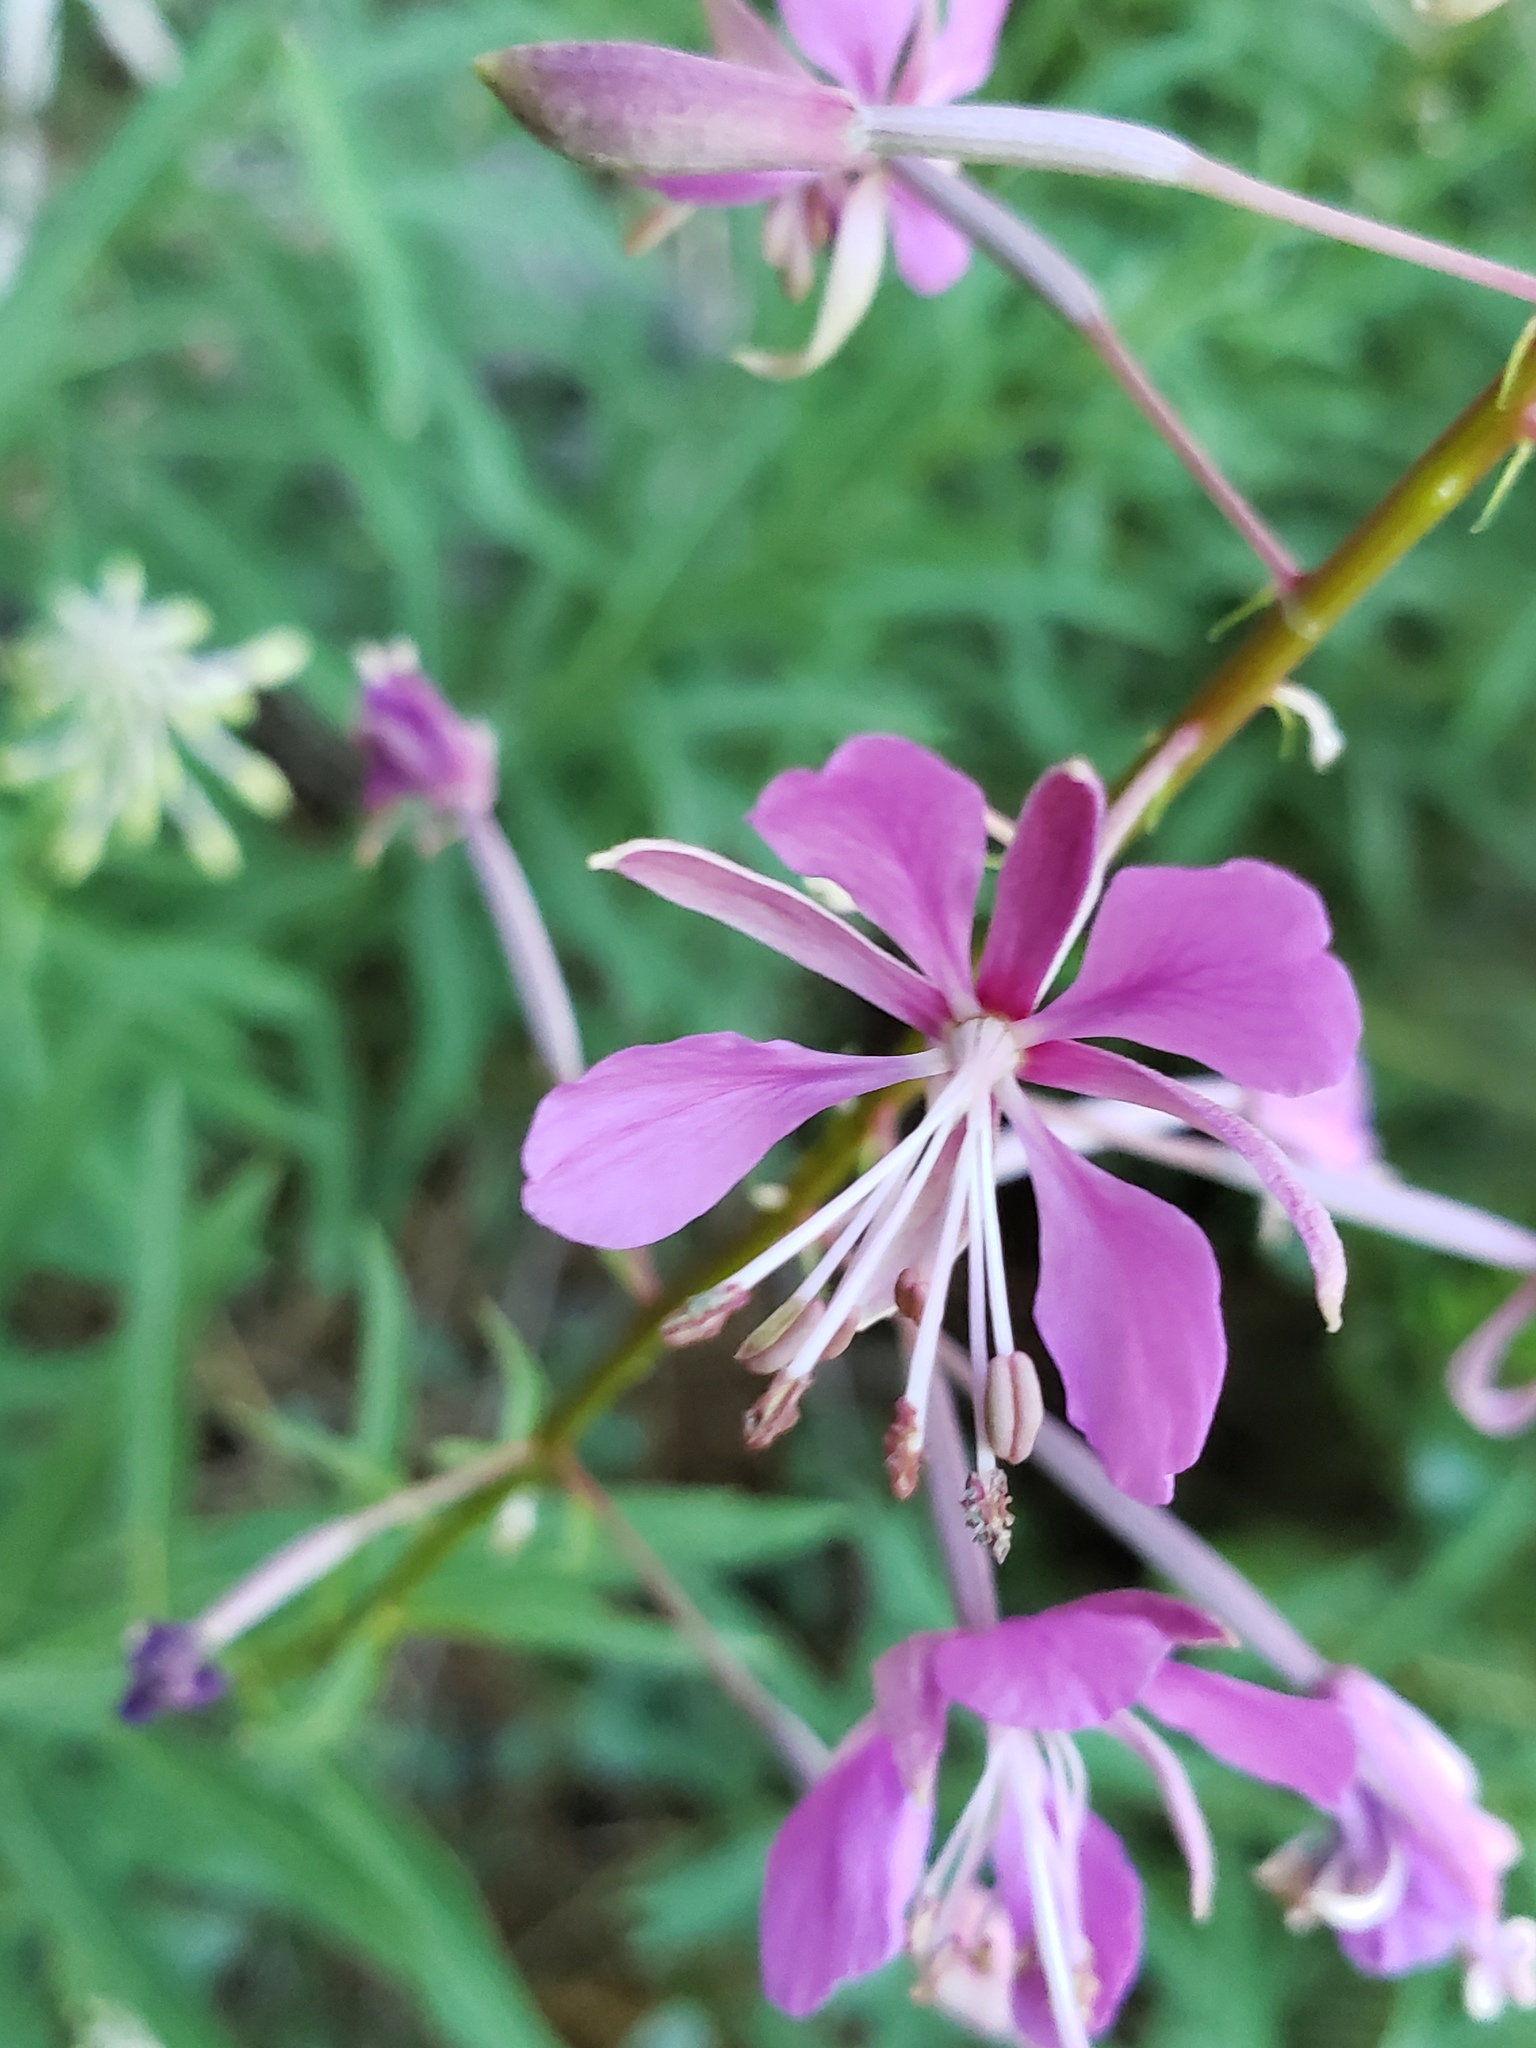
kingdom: Plantae
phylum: Tracheophyta
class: Magnoliopsida
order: Myrtales
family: Onagraceae
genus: Chamaenerion
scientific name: Chamaenerion angustifolium
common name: Fireweed
